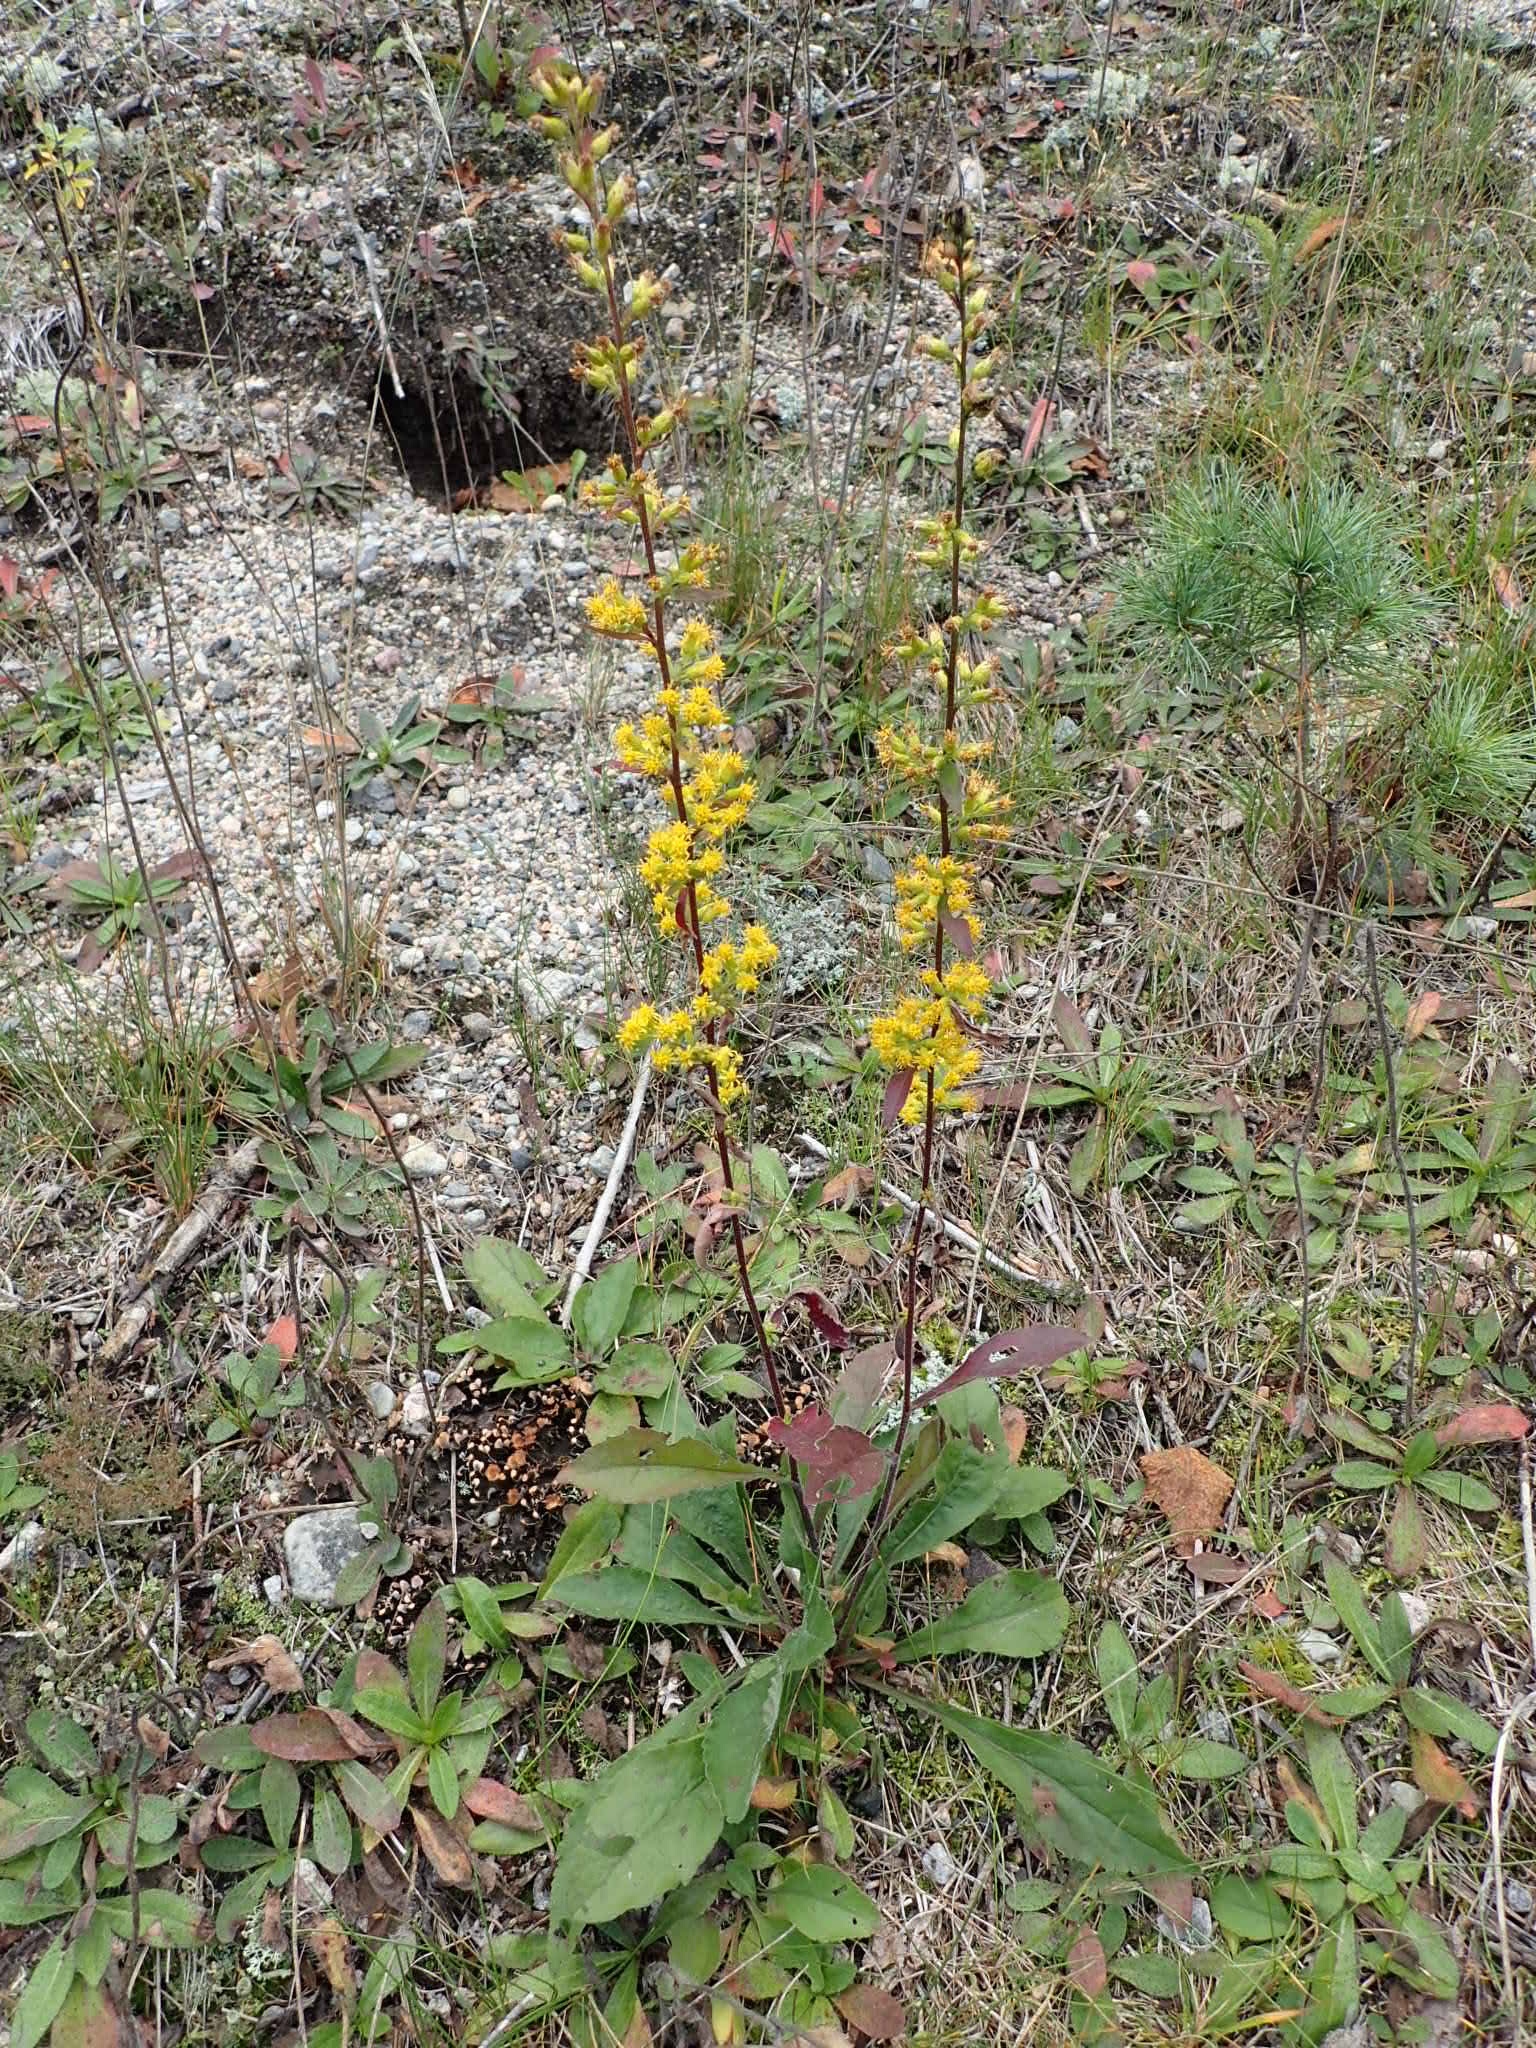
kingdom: Plantae
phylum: Tracheophyta
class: Magnoliopsida
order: Asterales
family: Asteraceae
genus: Solidago
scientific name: Solidago hispida
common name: Hairy goldenrod
